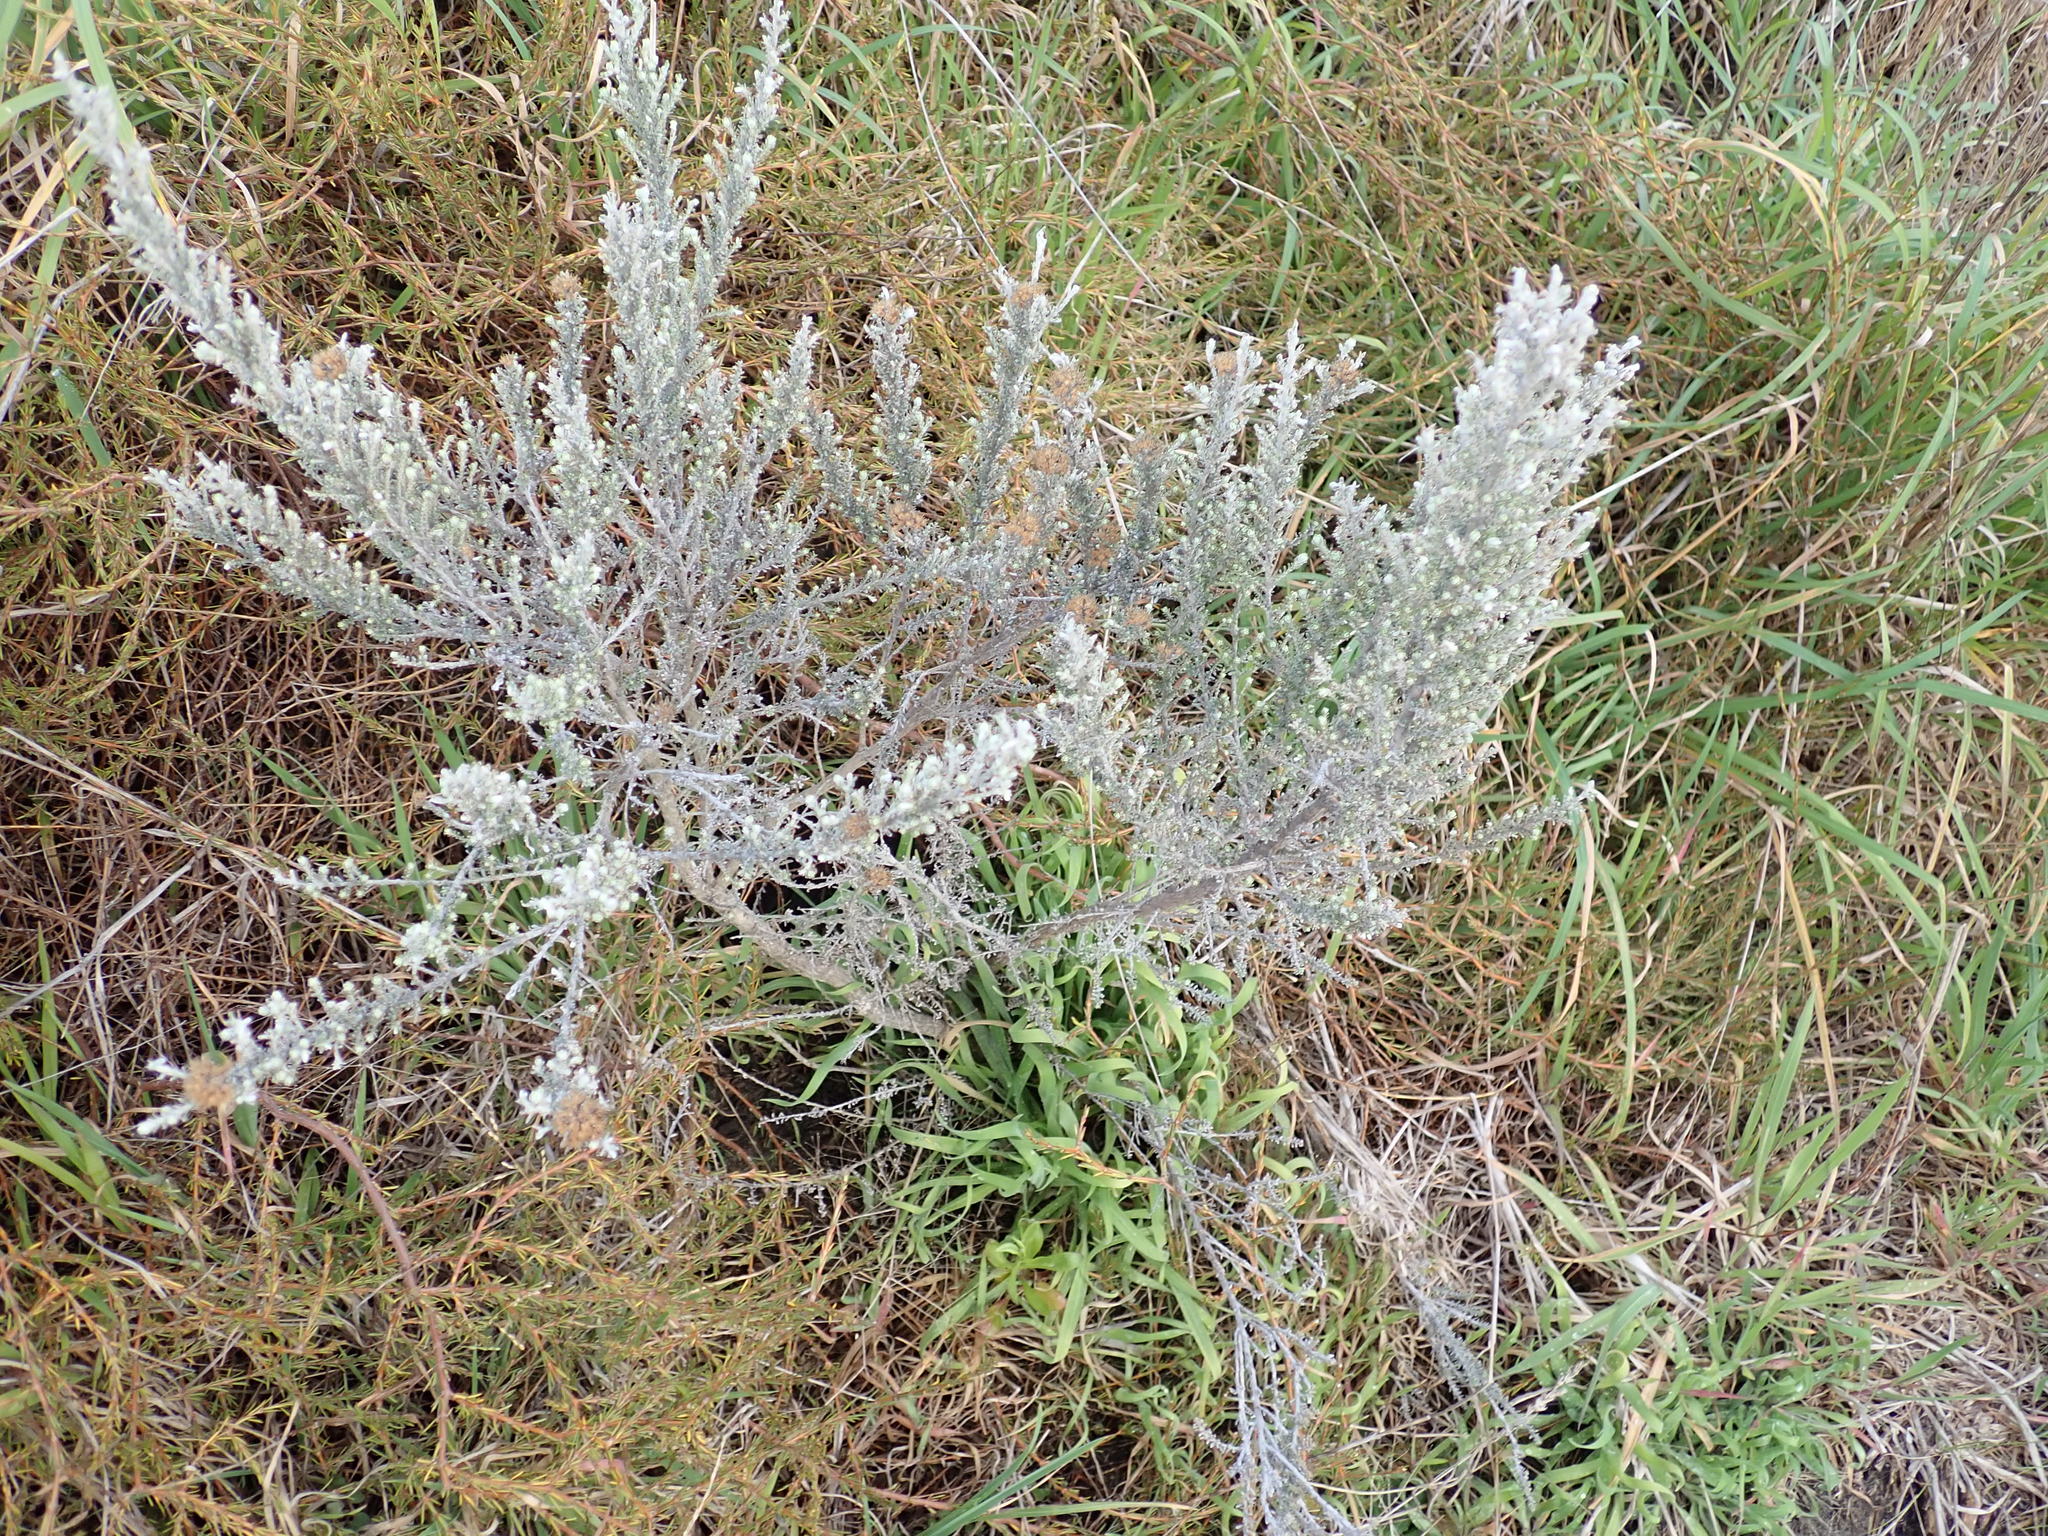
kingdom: Plantae
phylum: Tracheophyta
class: Magnoliopsida
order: Asterales
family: Asteraceae
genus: Ozothamnus
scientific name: Ozothamnus leptophyllus
